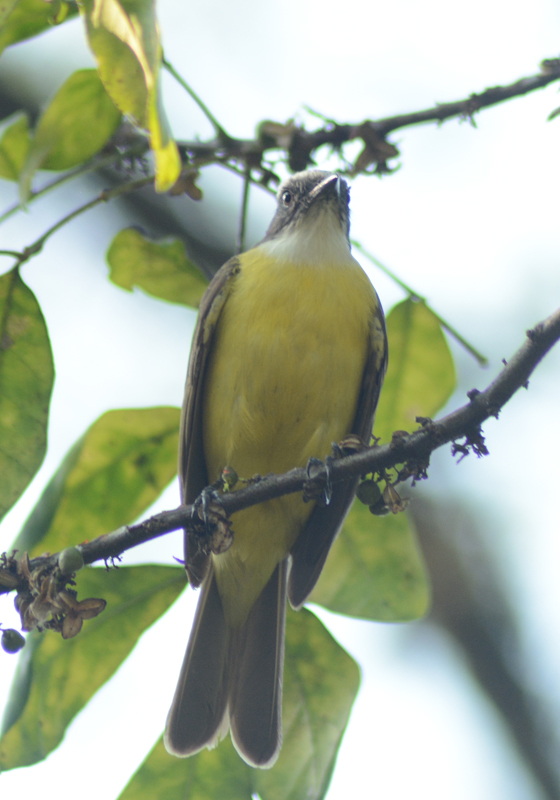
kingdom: Animalia
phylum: Chordata
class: Aves
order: Passeriformes
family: Tyrannidae
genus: Myiozetetes
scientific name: Myiozetetes similis
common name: Social flycatcher
